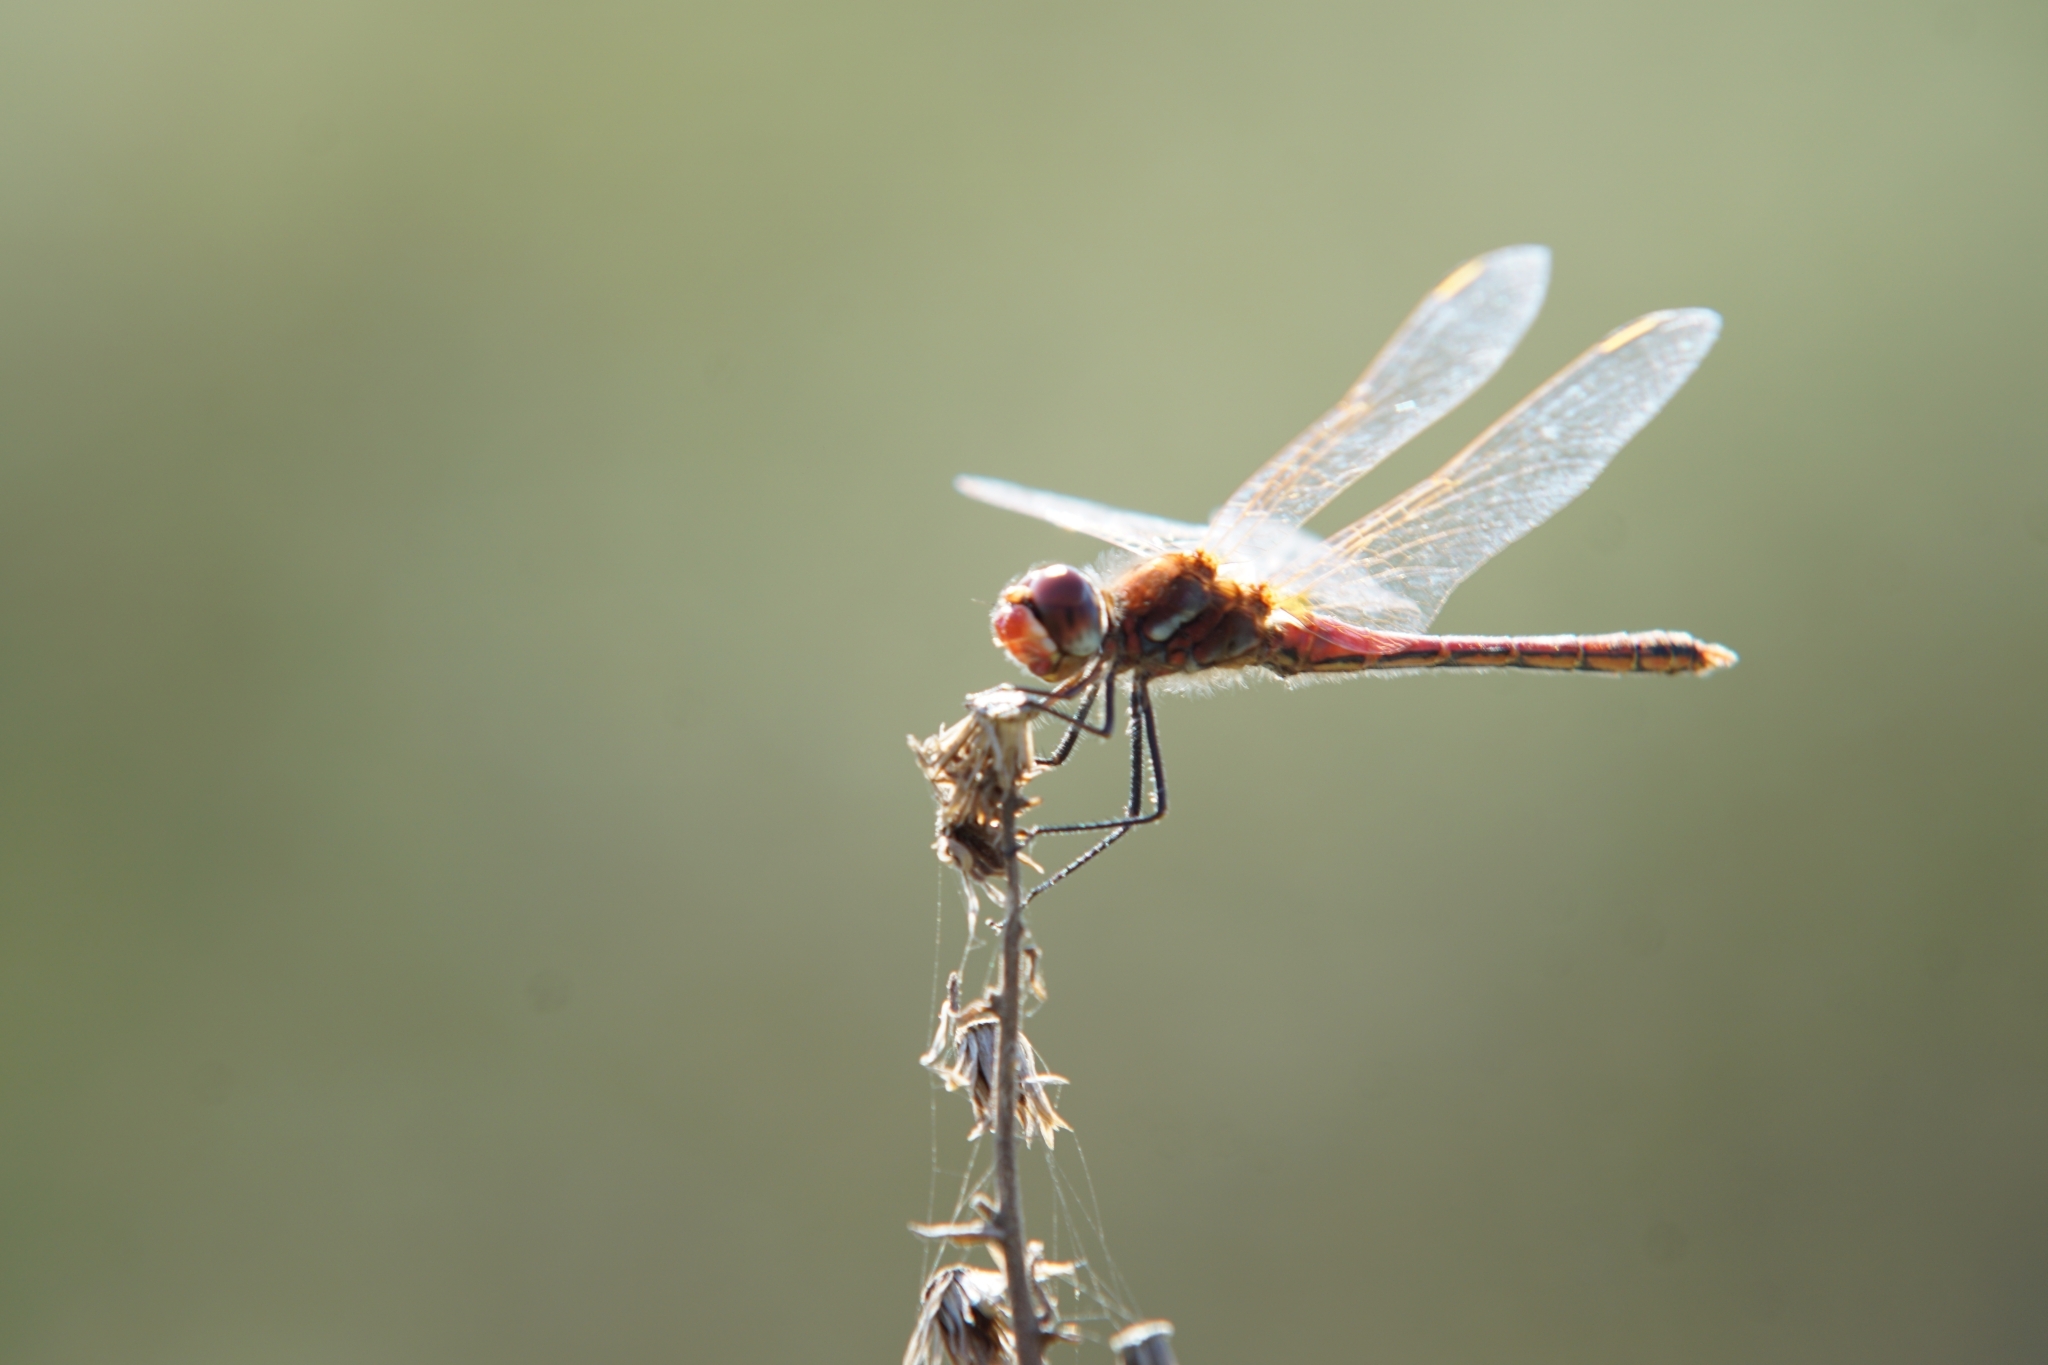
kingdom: Animalia
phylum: Arthropoda
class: Insecta
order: Odonata
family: Libellulidae
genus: Sympetrum
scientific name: Sympetrum fonscolombii
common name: Red-veined darter
